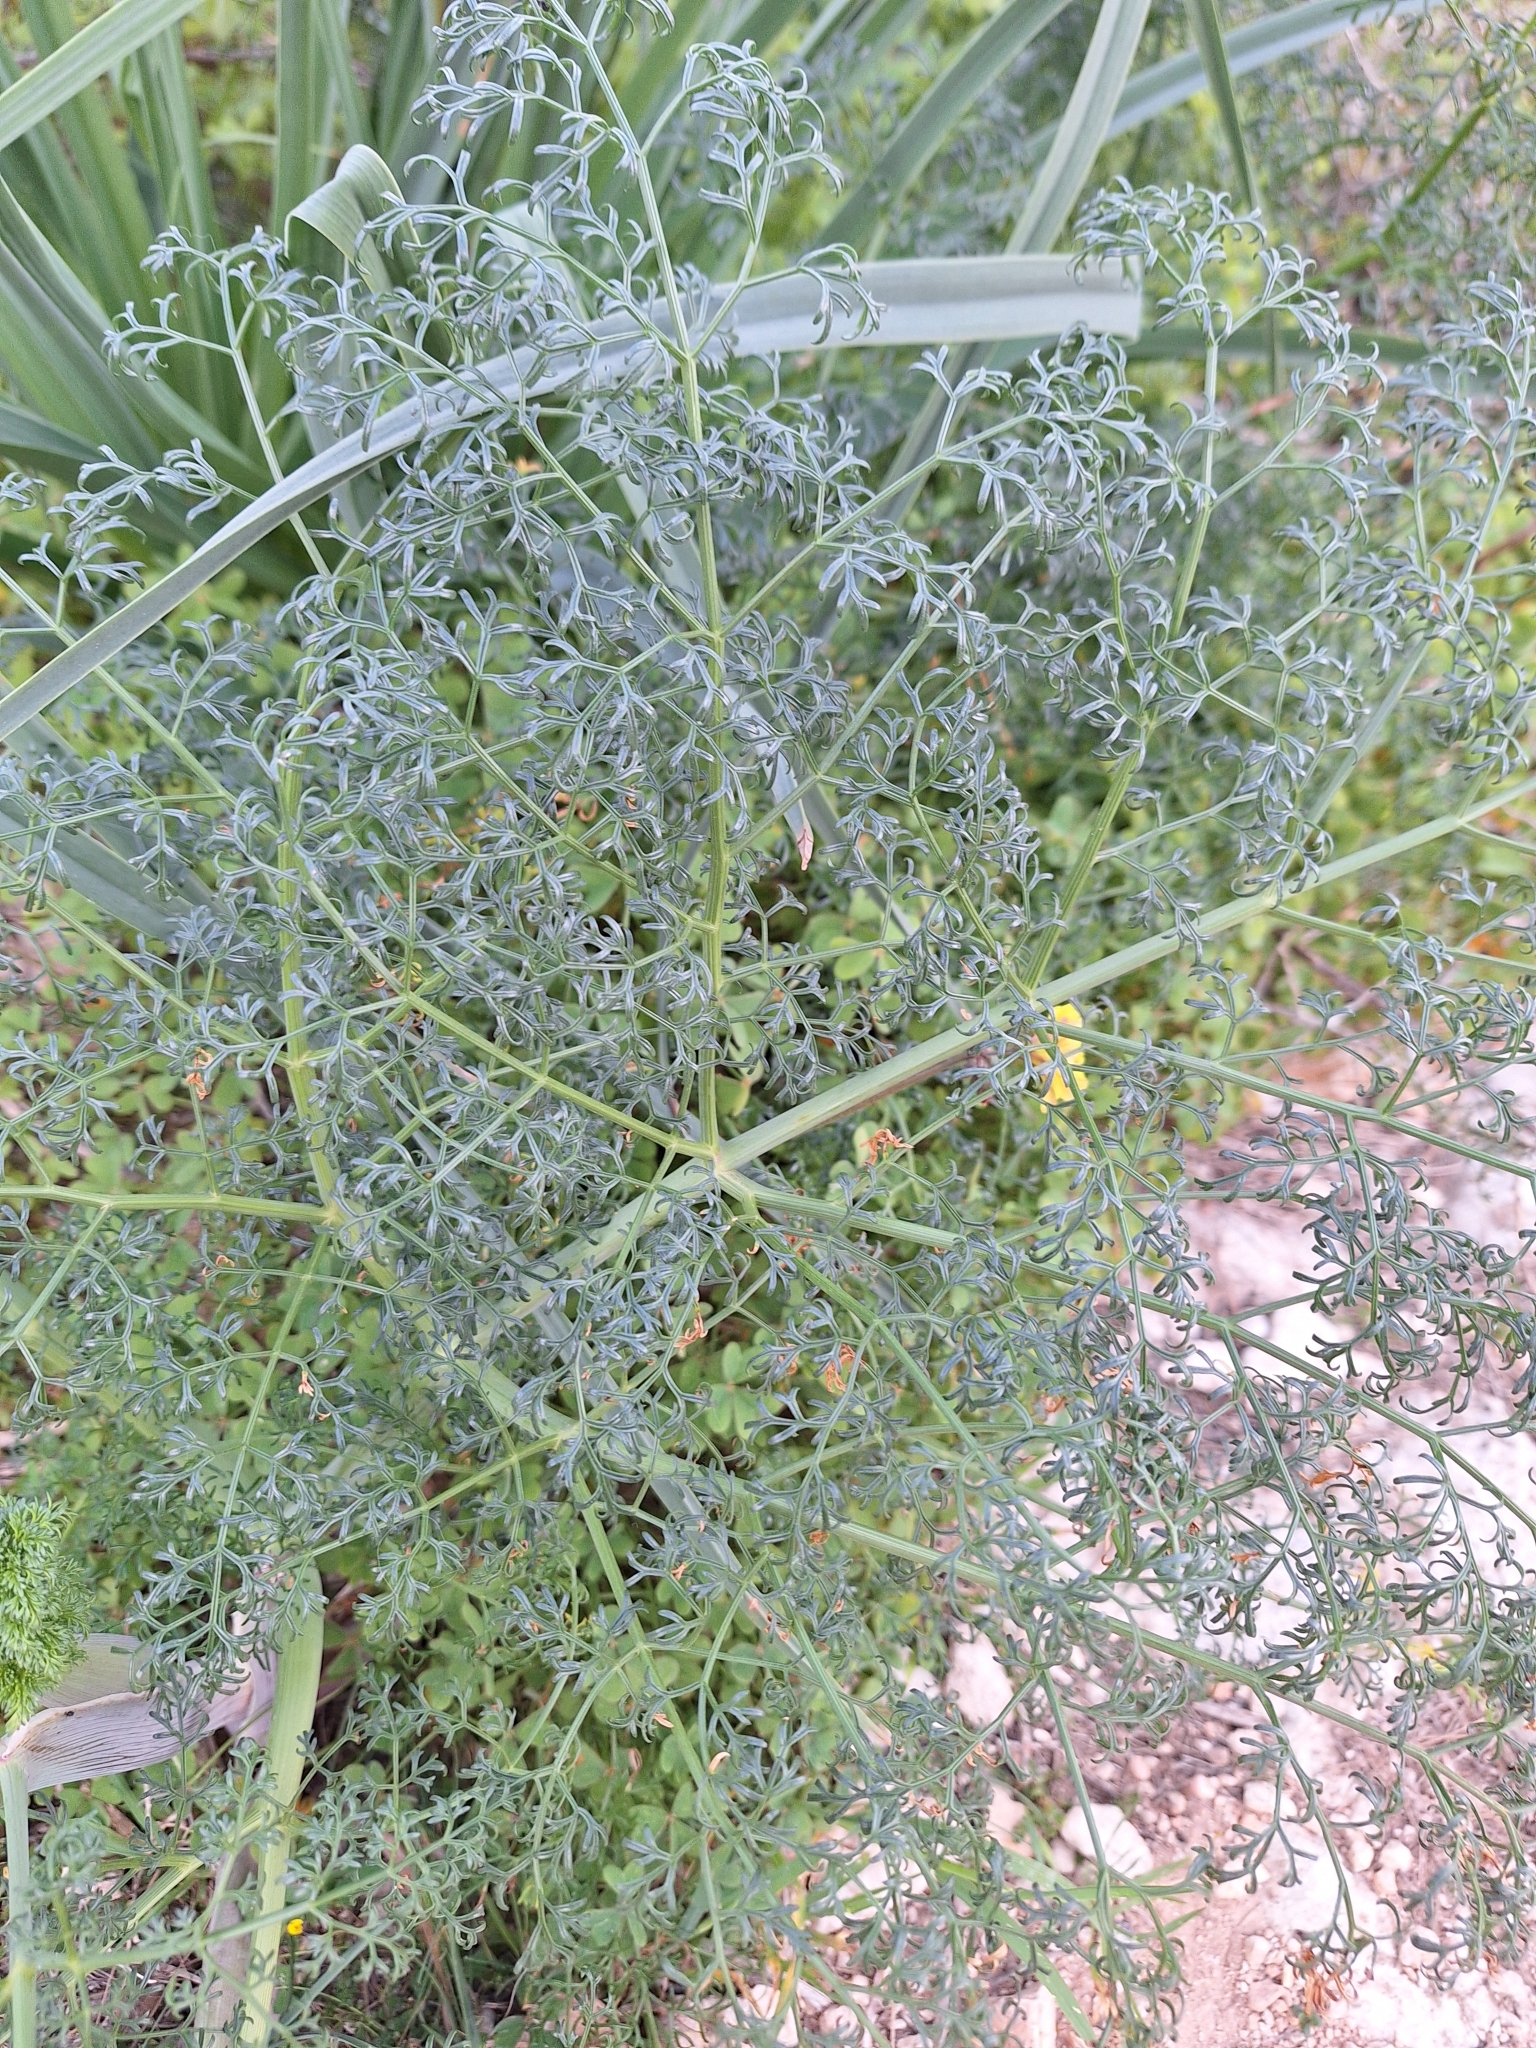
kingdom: Plantae
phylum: Tracheophyta
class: Magnoliopsida
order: Apiales
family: Apiaceae
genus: Ferula
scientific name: Ferula melitensis
